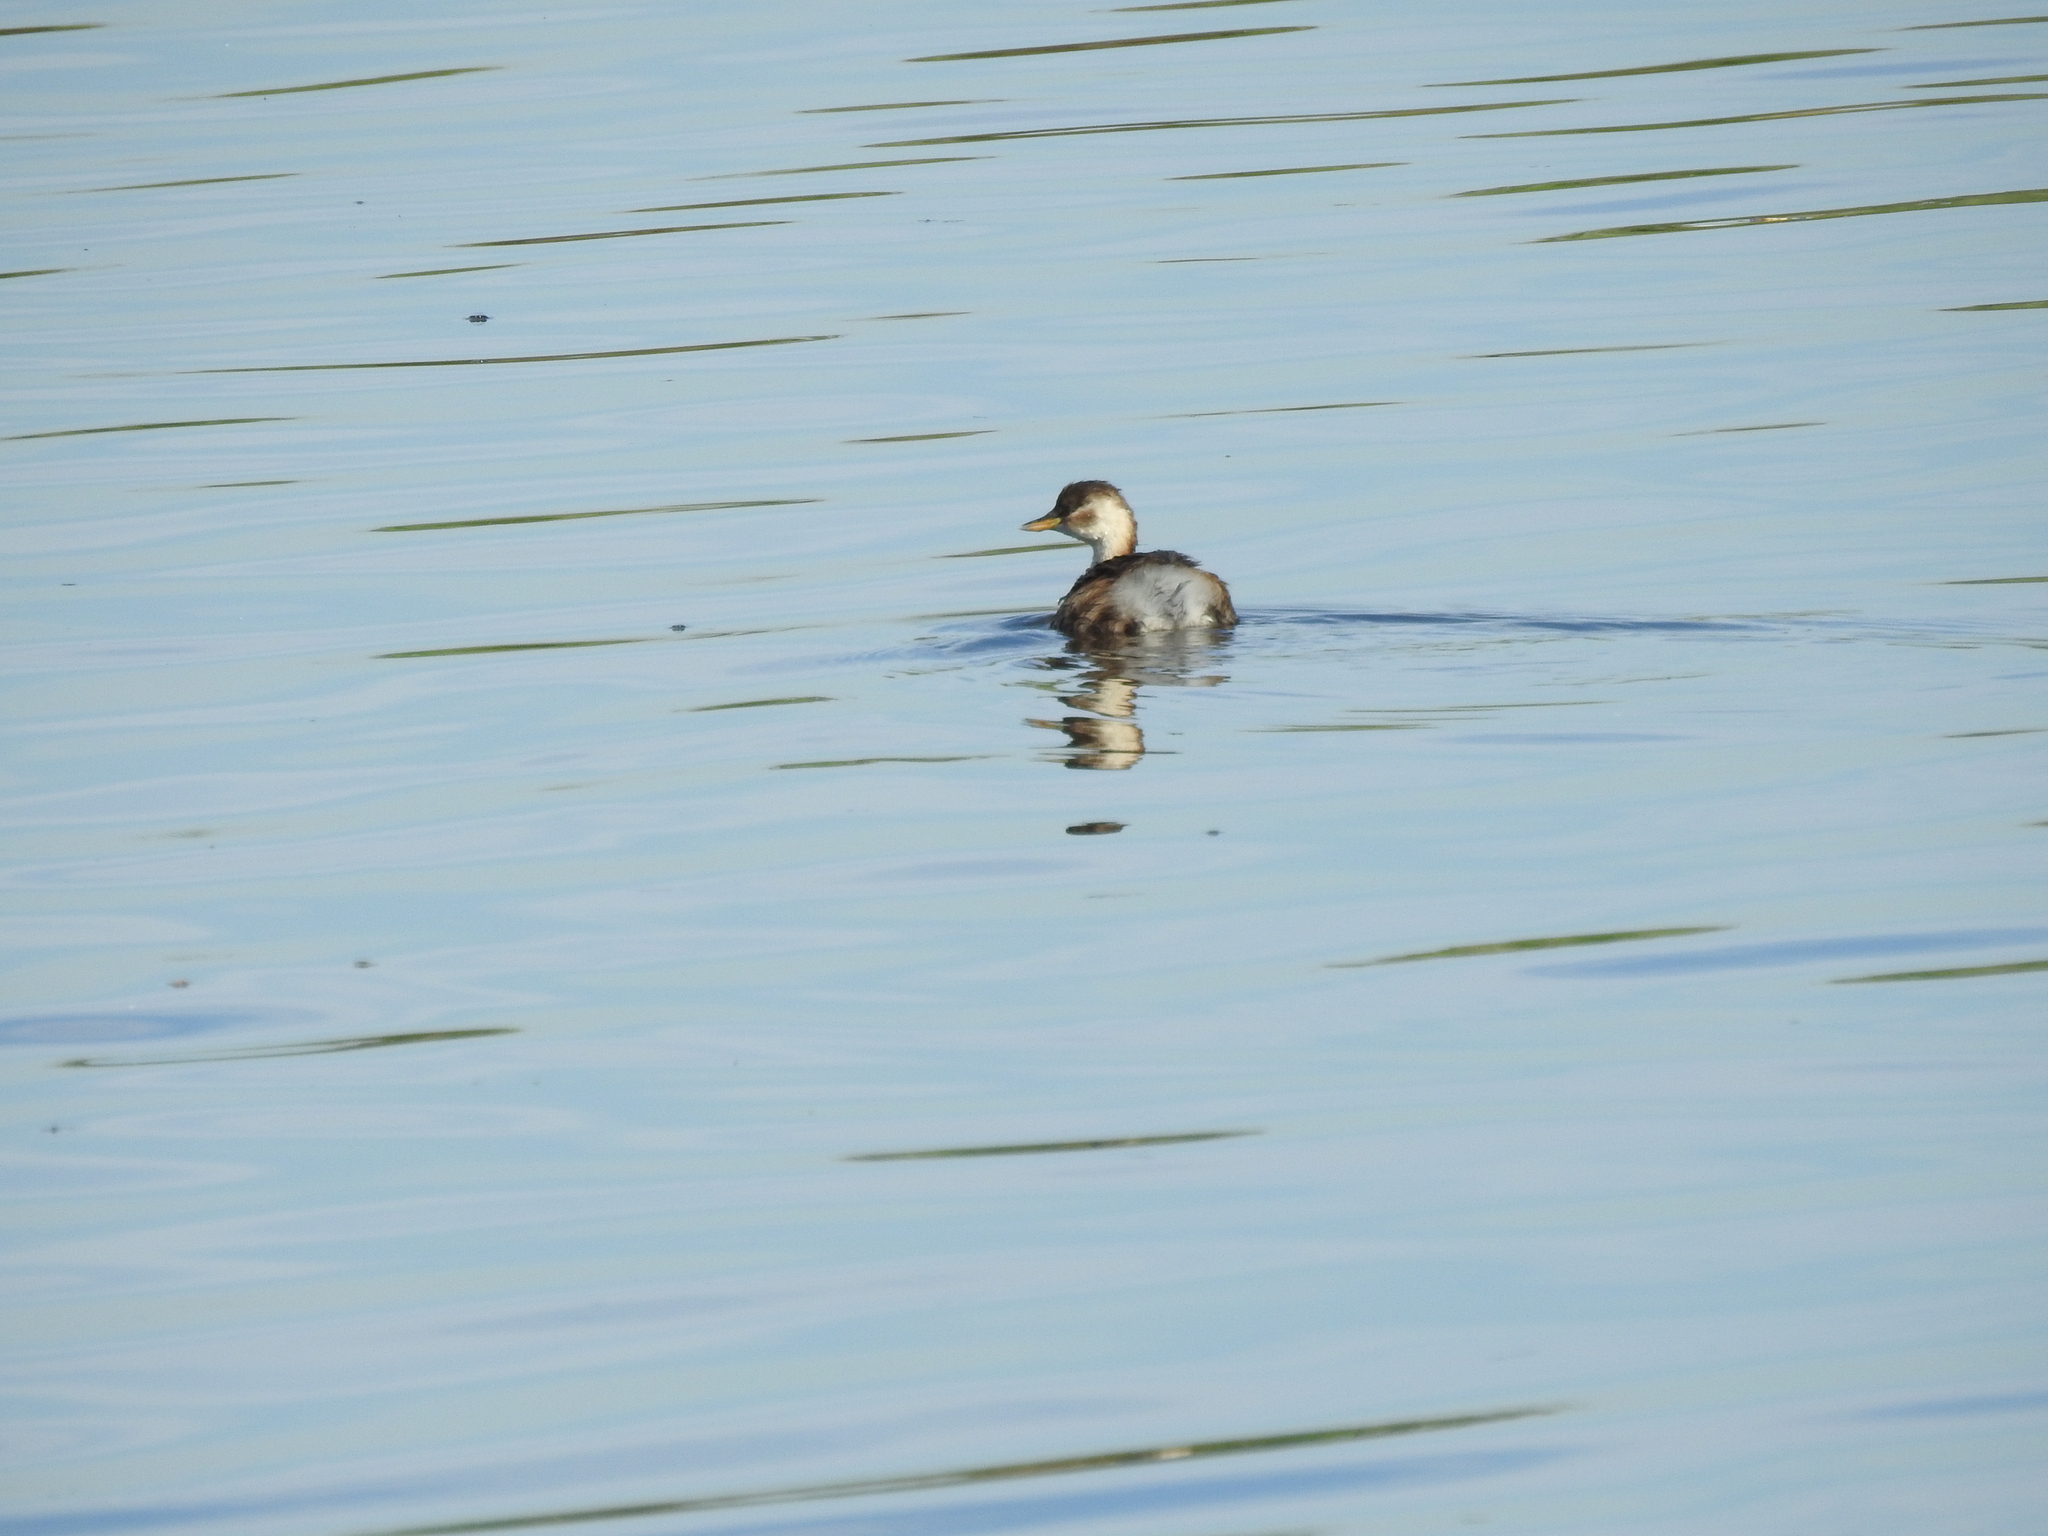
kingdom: Animalia
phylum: Chordata
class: Aves
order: Podicipediformes
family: Podicipedidae
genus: Tachybaptus
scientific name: Tachybaptus ruficollis
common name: Little grebe
